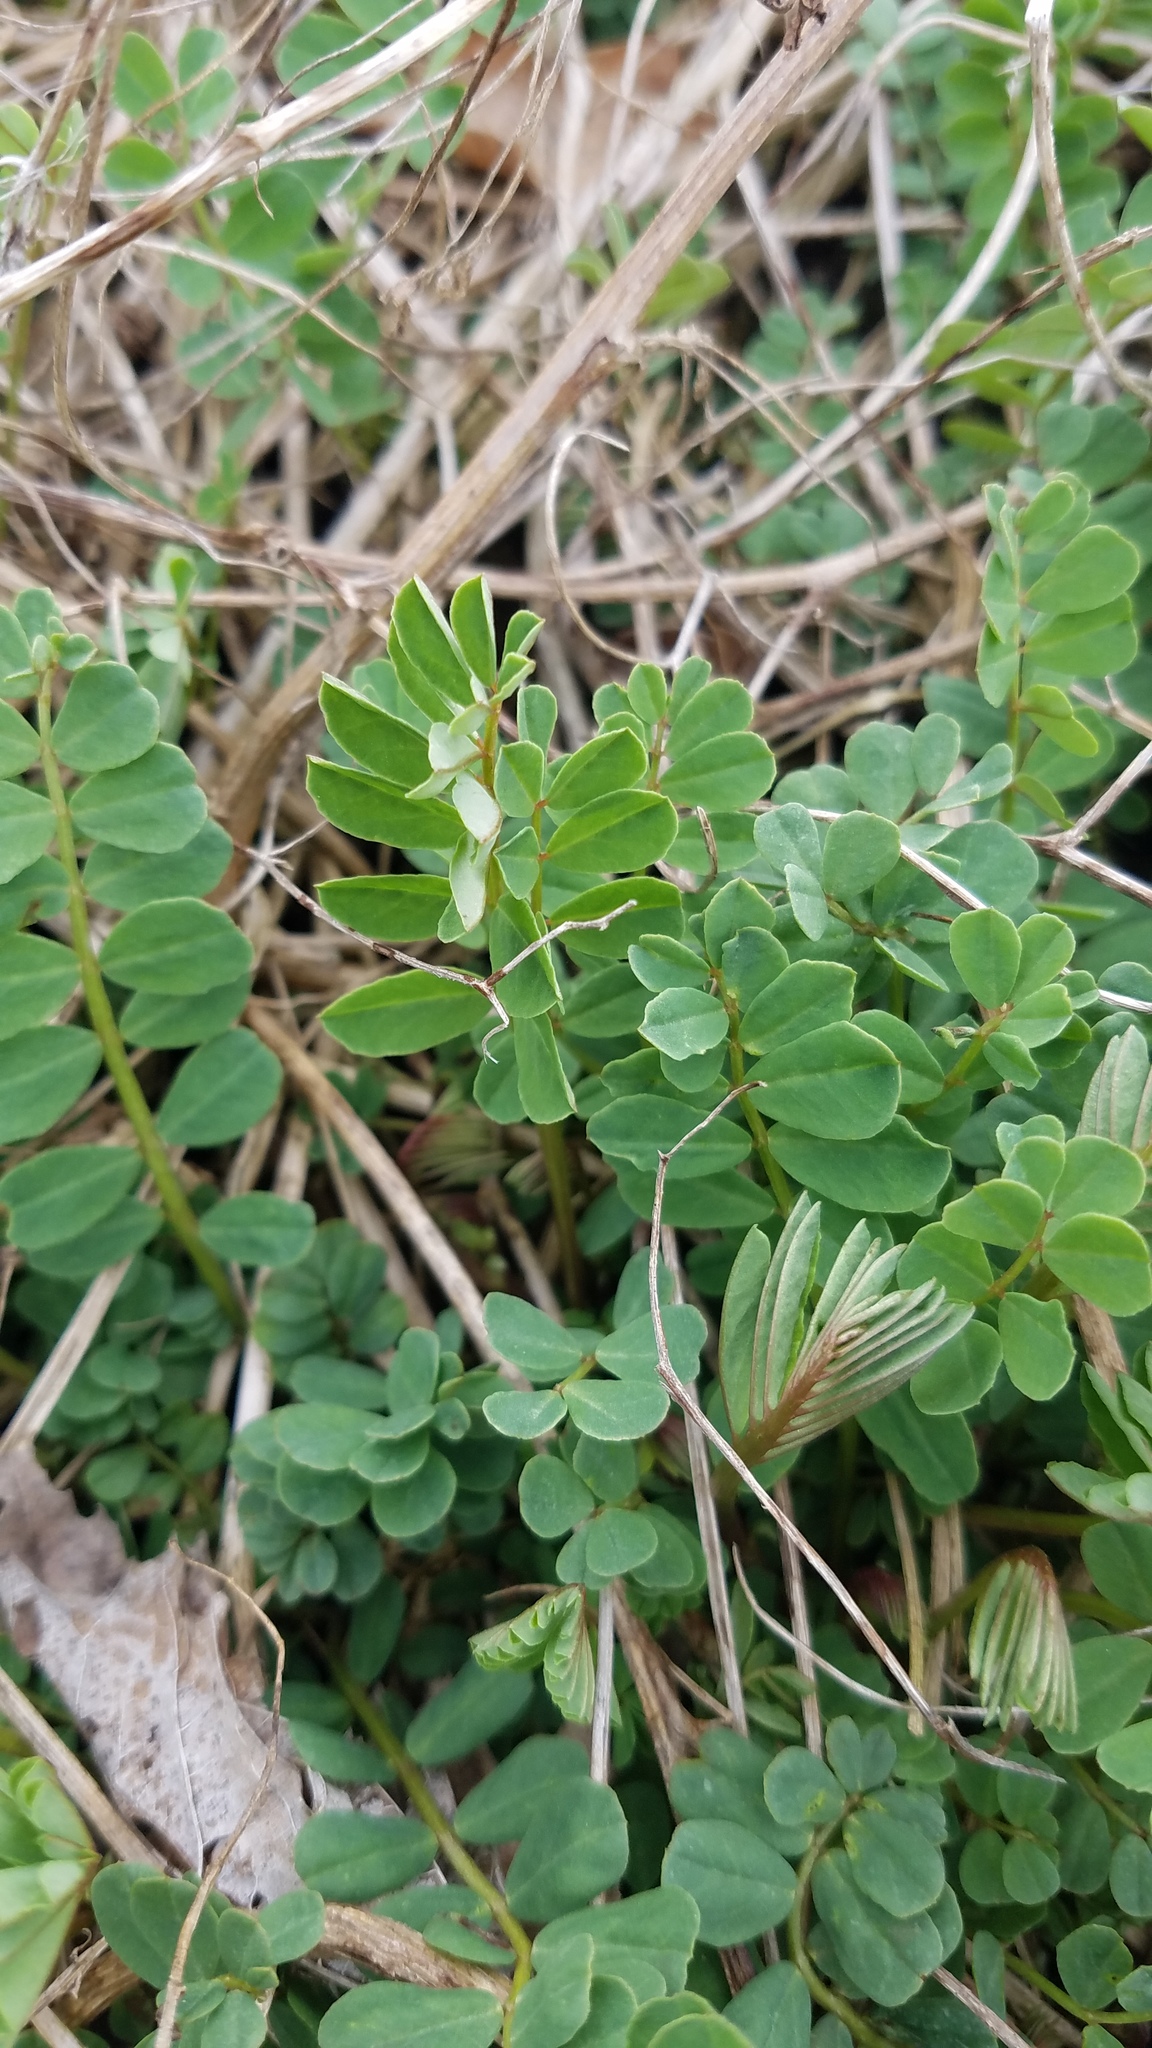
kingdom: Plantae
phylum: Tracheophyta
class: Magnoliopsida
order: Fabales
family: Fabaceae
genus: Coronilla
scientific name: Coronilla varia
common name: Crownvetch
